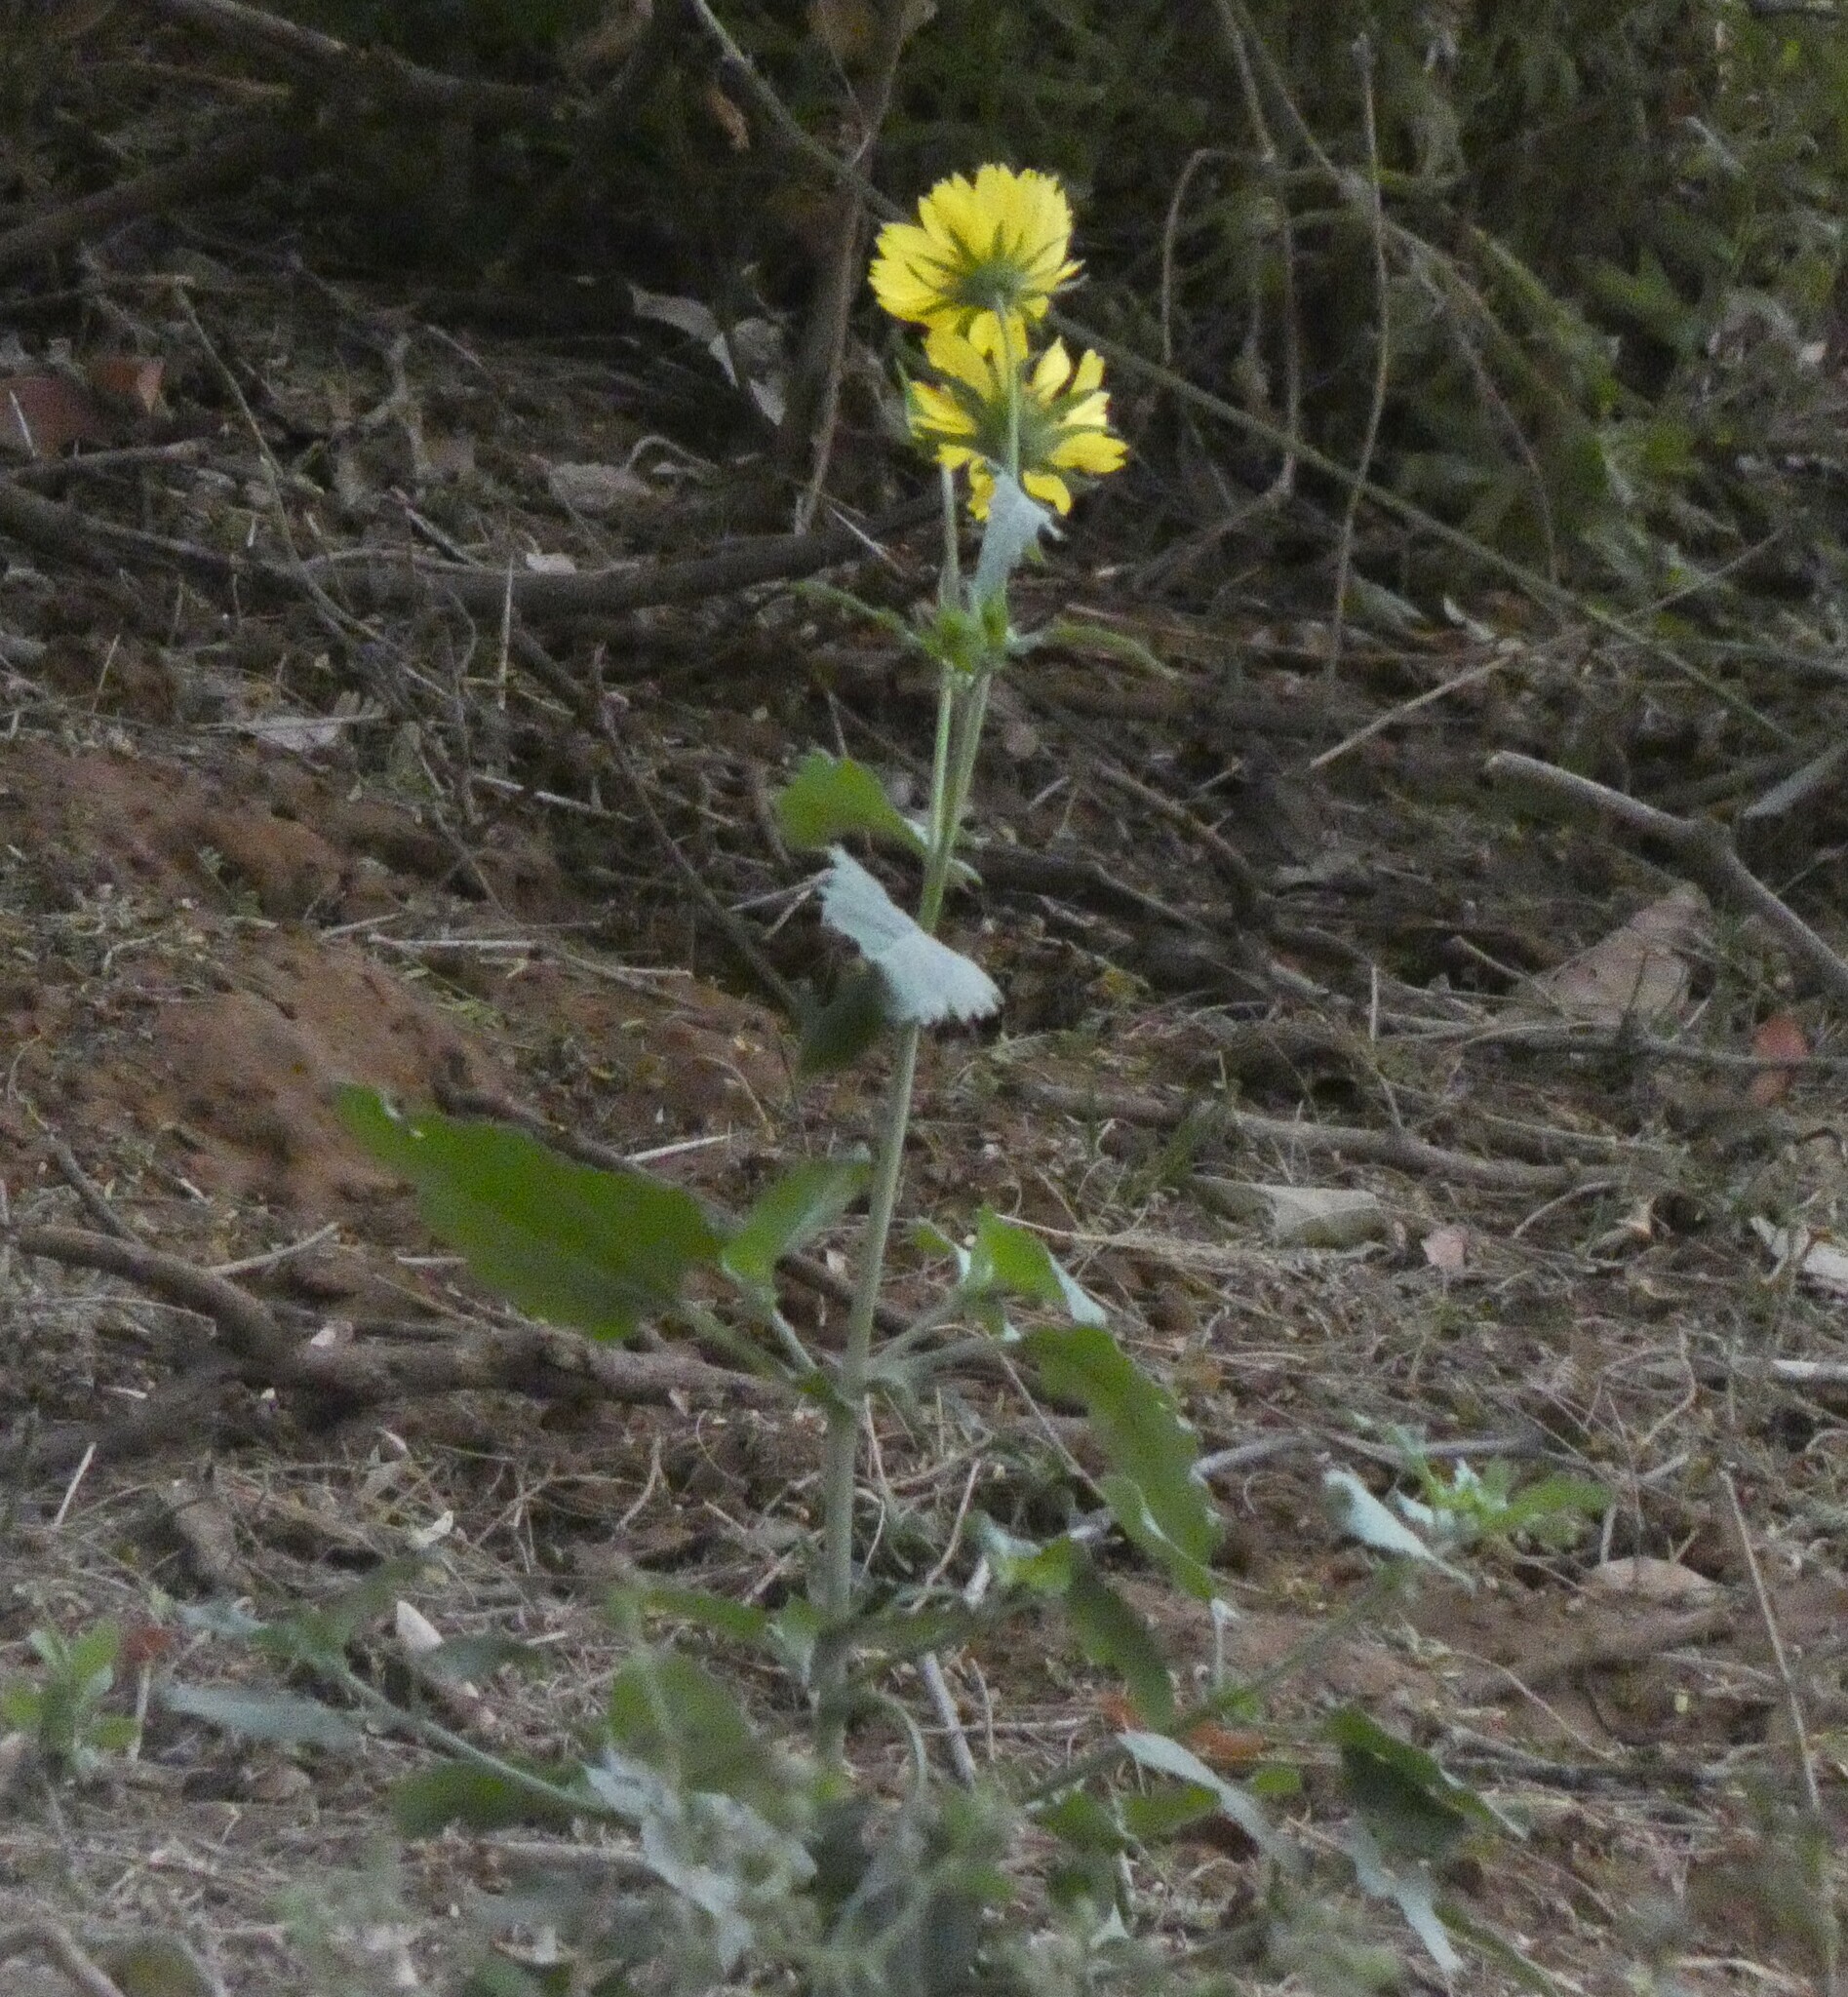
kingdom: Plantae
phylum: Tracheophyta
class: Magnoliopsida
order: Asterales
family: Asteraceae
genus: Verbesina
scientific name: Verbesina encelioides
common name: Golden crownbeard
